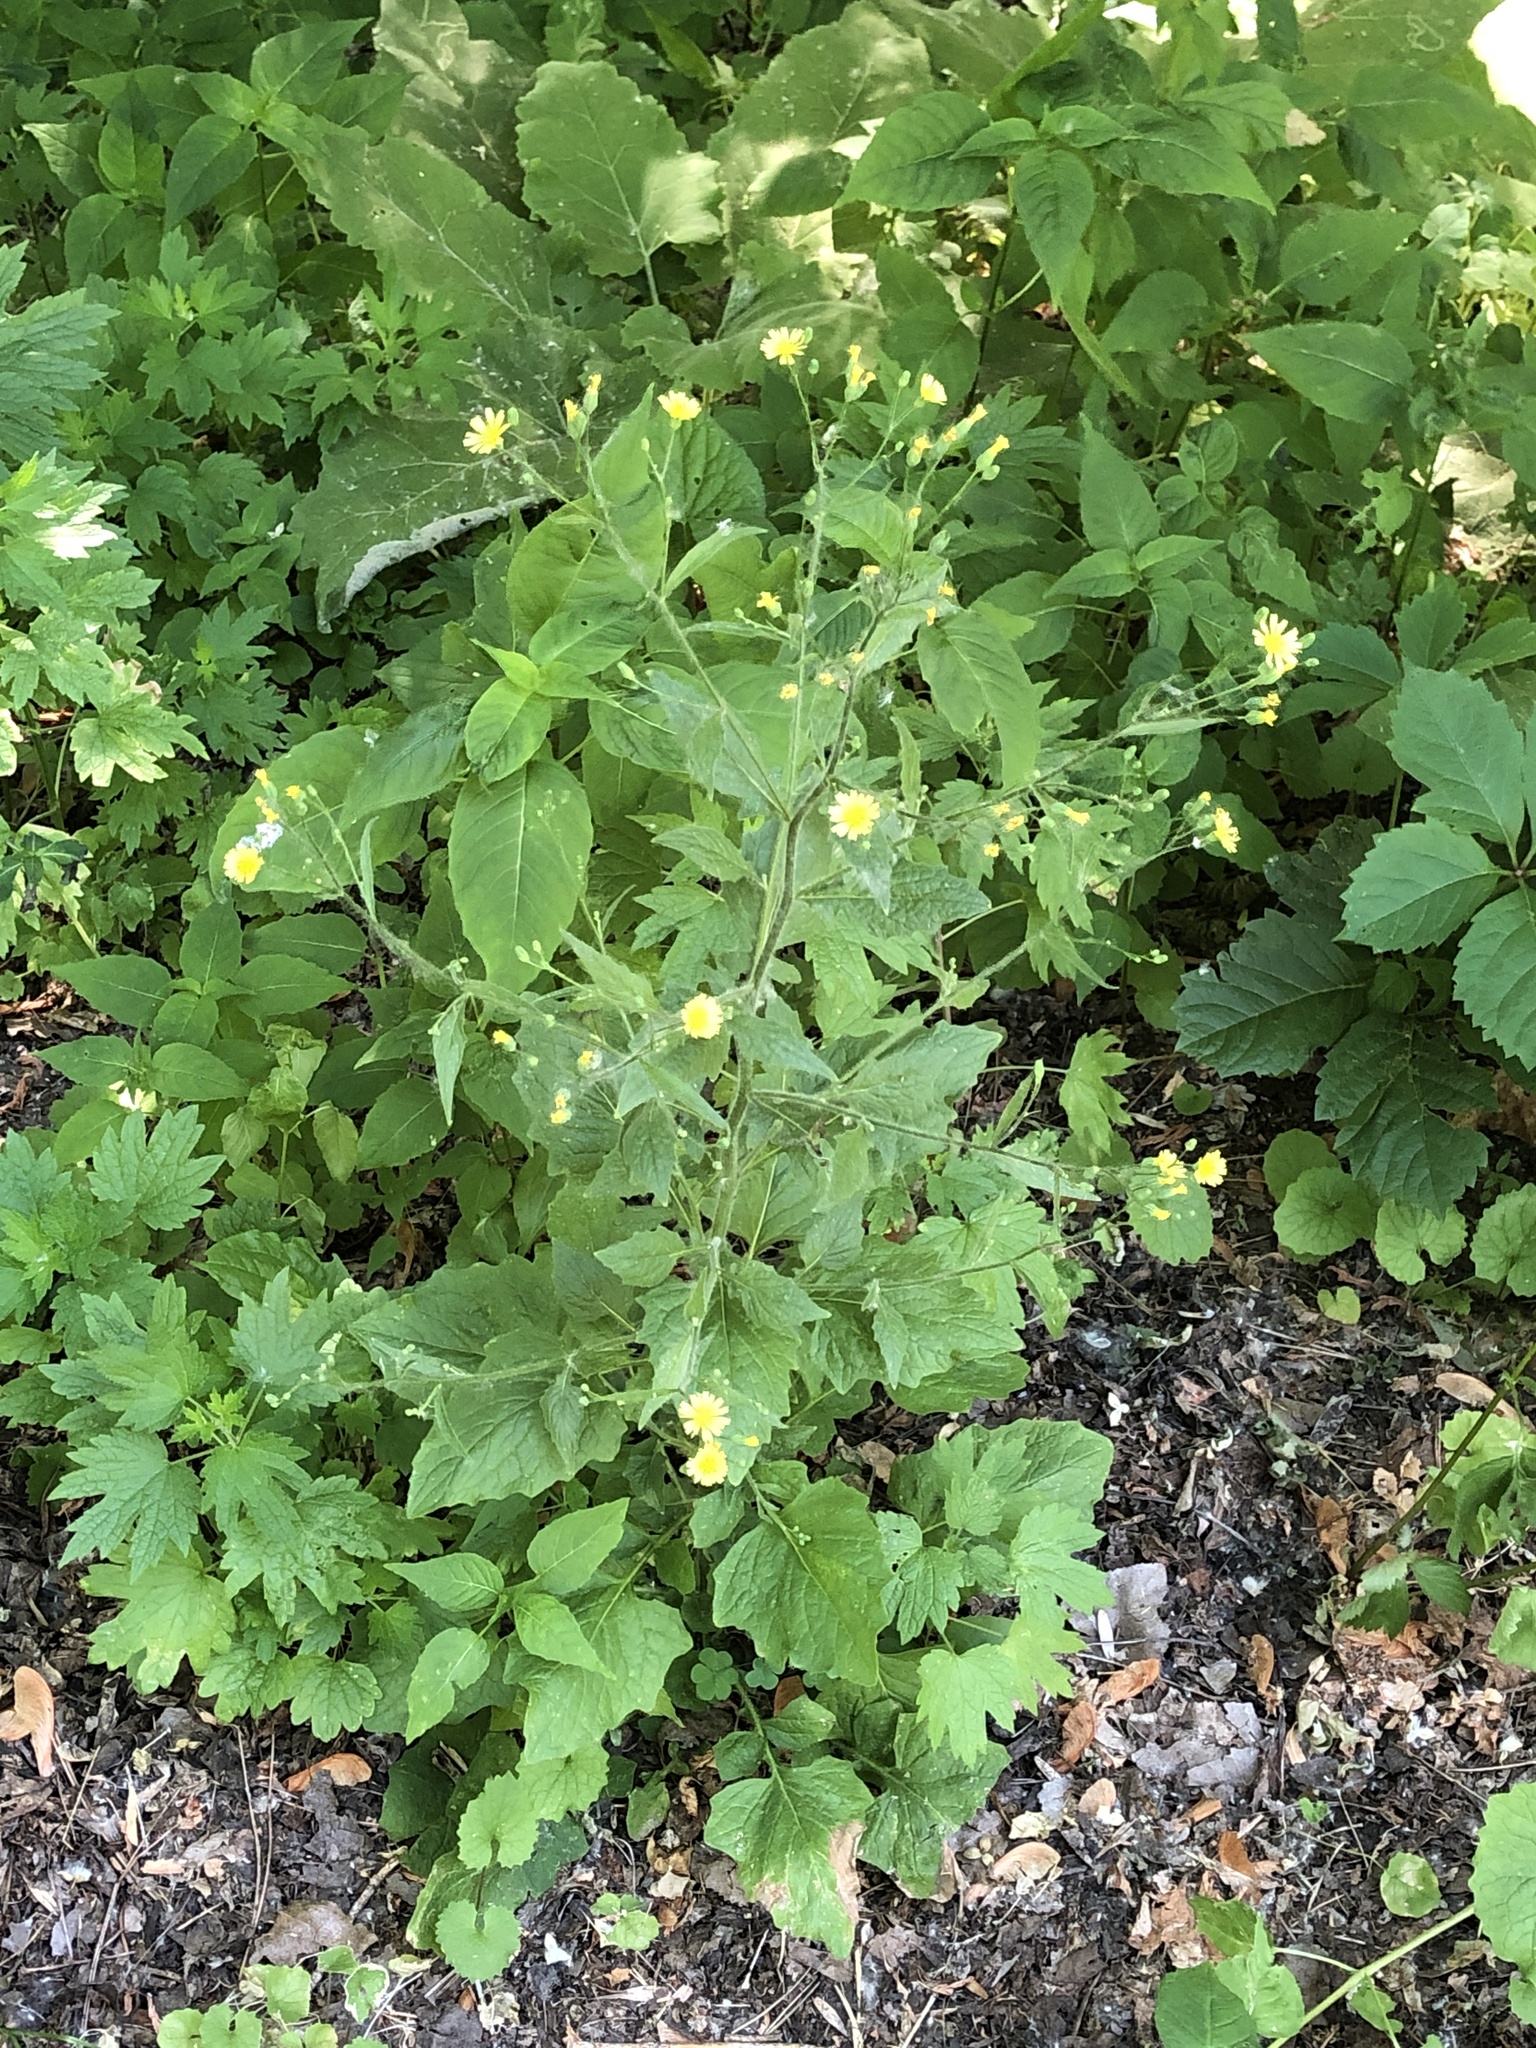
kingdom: Plantae
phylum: Tracheophyta
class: Magnoliopsida
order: Asterales
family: Asteraceae
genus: Lapsana
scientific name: Lapsana communis
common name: Nipplewort
